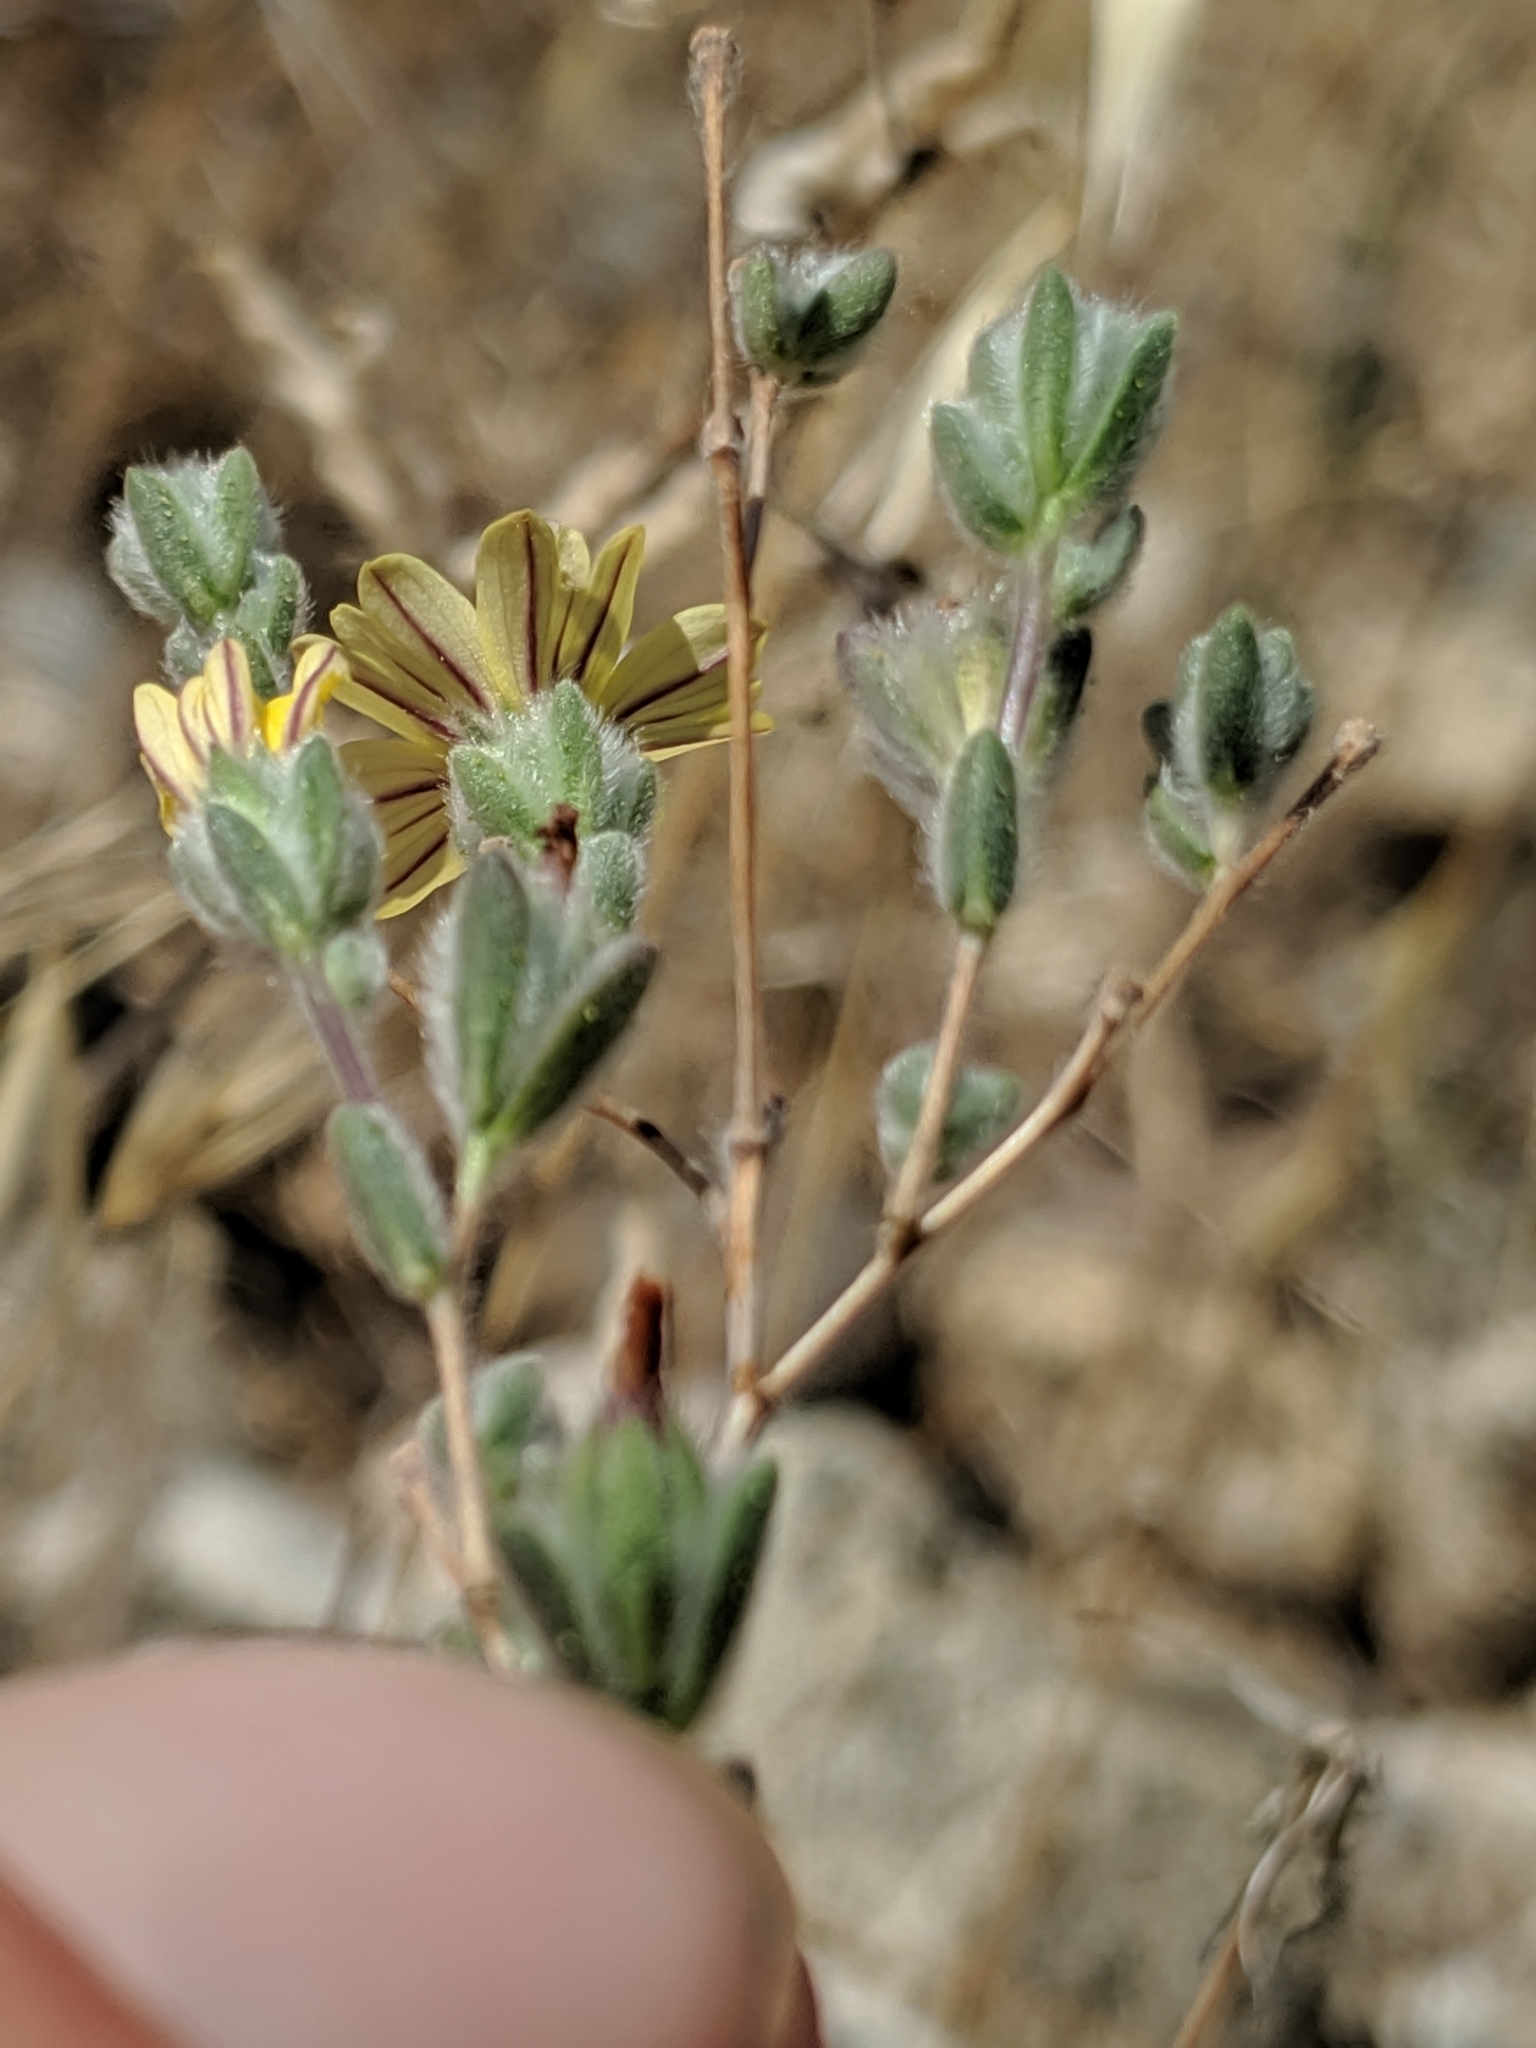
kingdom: Plantae
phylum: Tracheophyta
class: Magnoliopsida
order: Asterales
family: Asteraceae
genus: Lagophylla
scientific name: Lagophylla ramosissima
